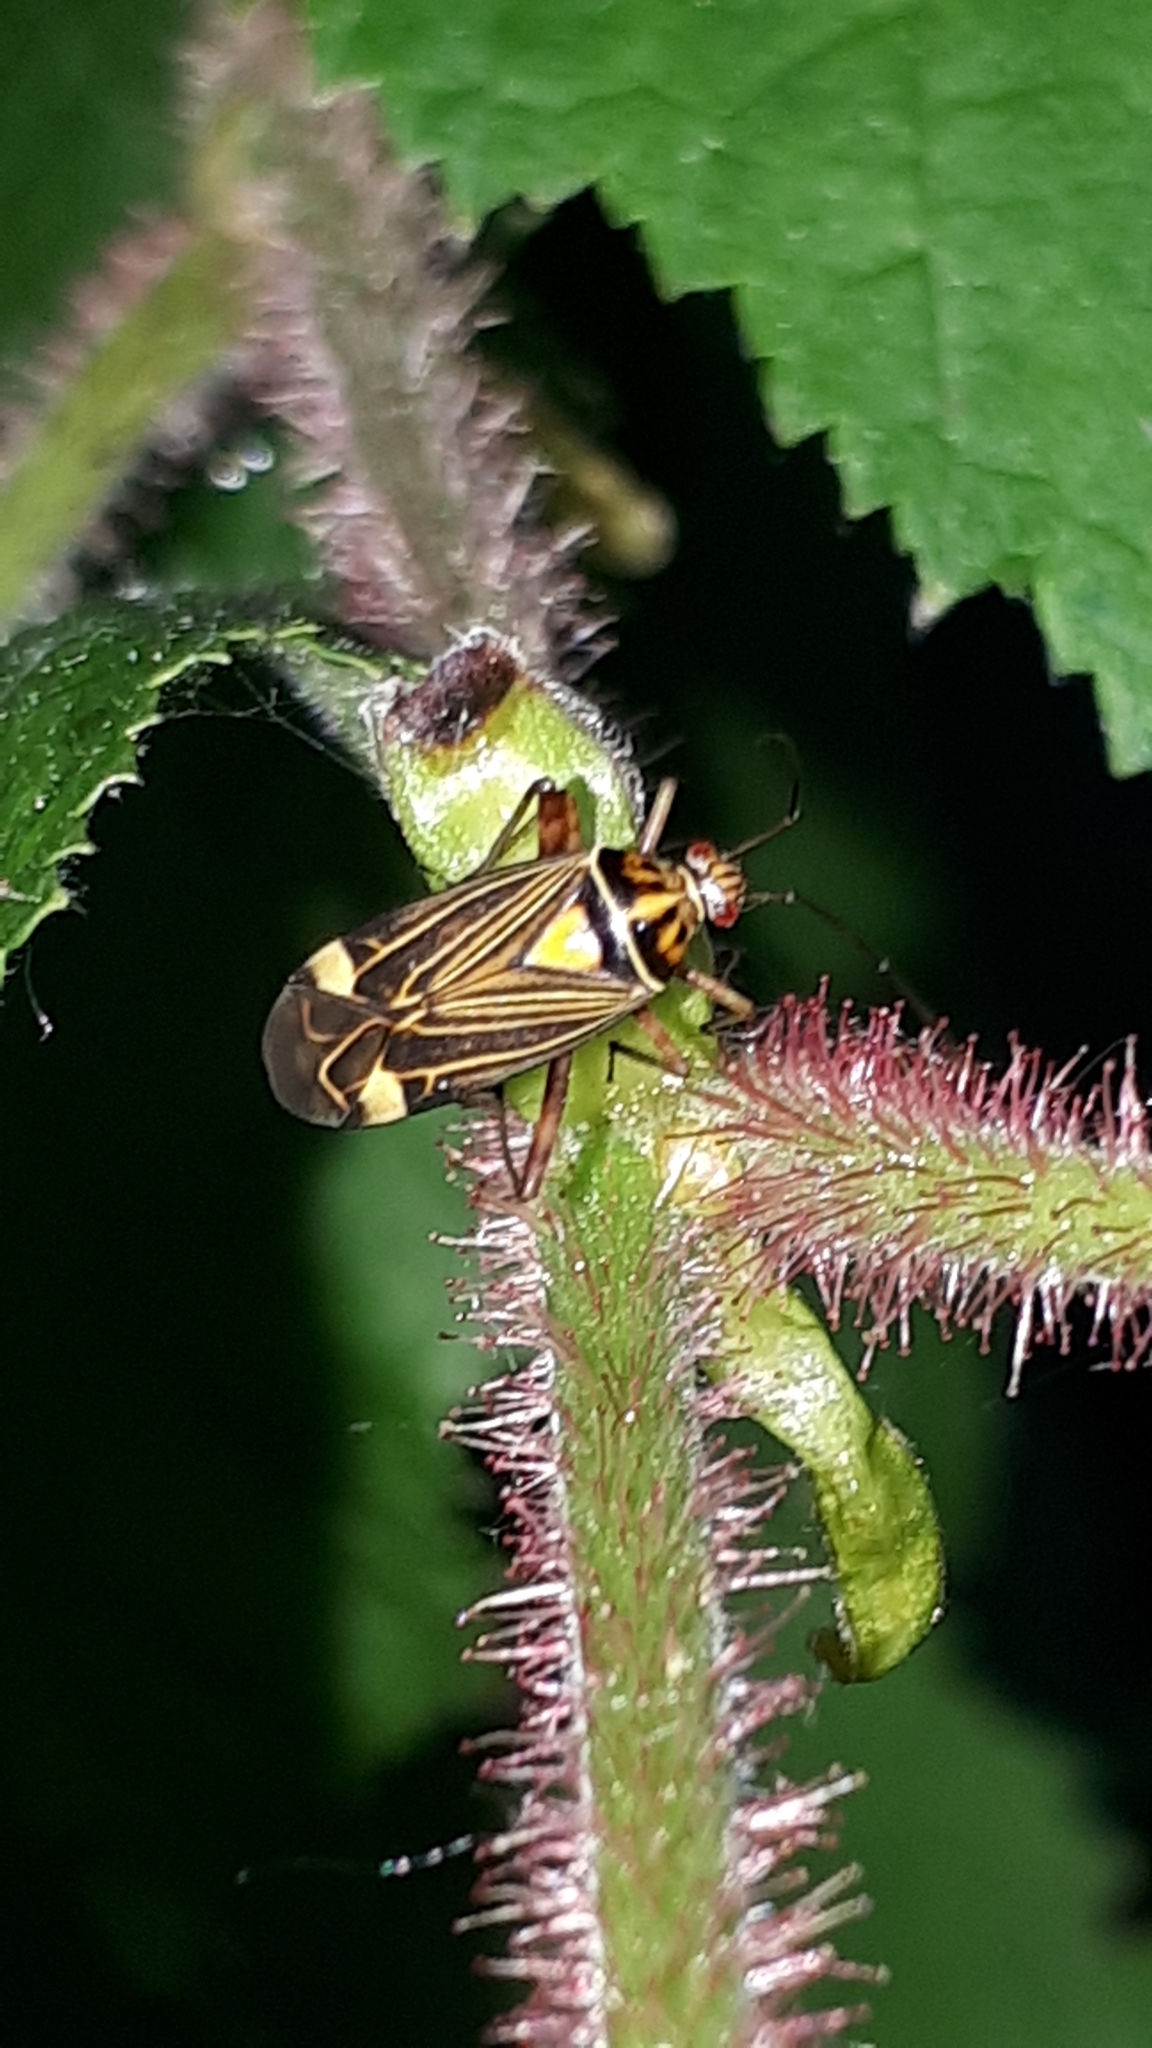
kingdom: Animalia
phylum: Arthropoda
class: Insecta
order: Hemiptera
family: Miridae
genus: Rhabdomiris
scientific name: Rhabdomiris striatellus
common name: Plant bug
